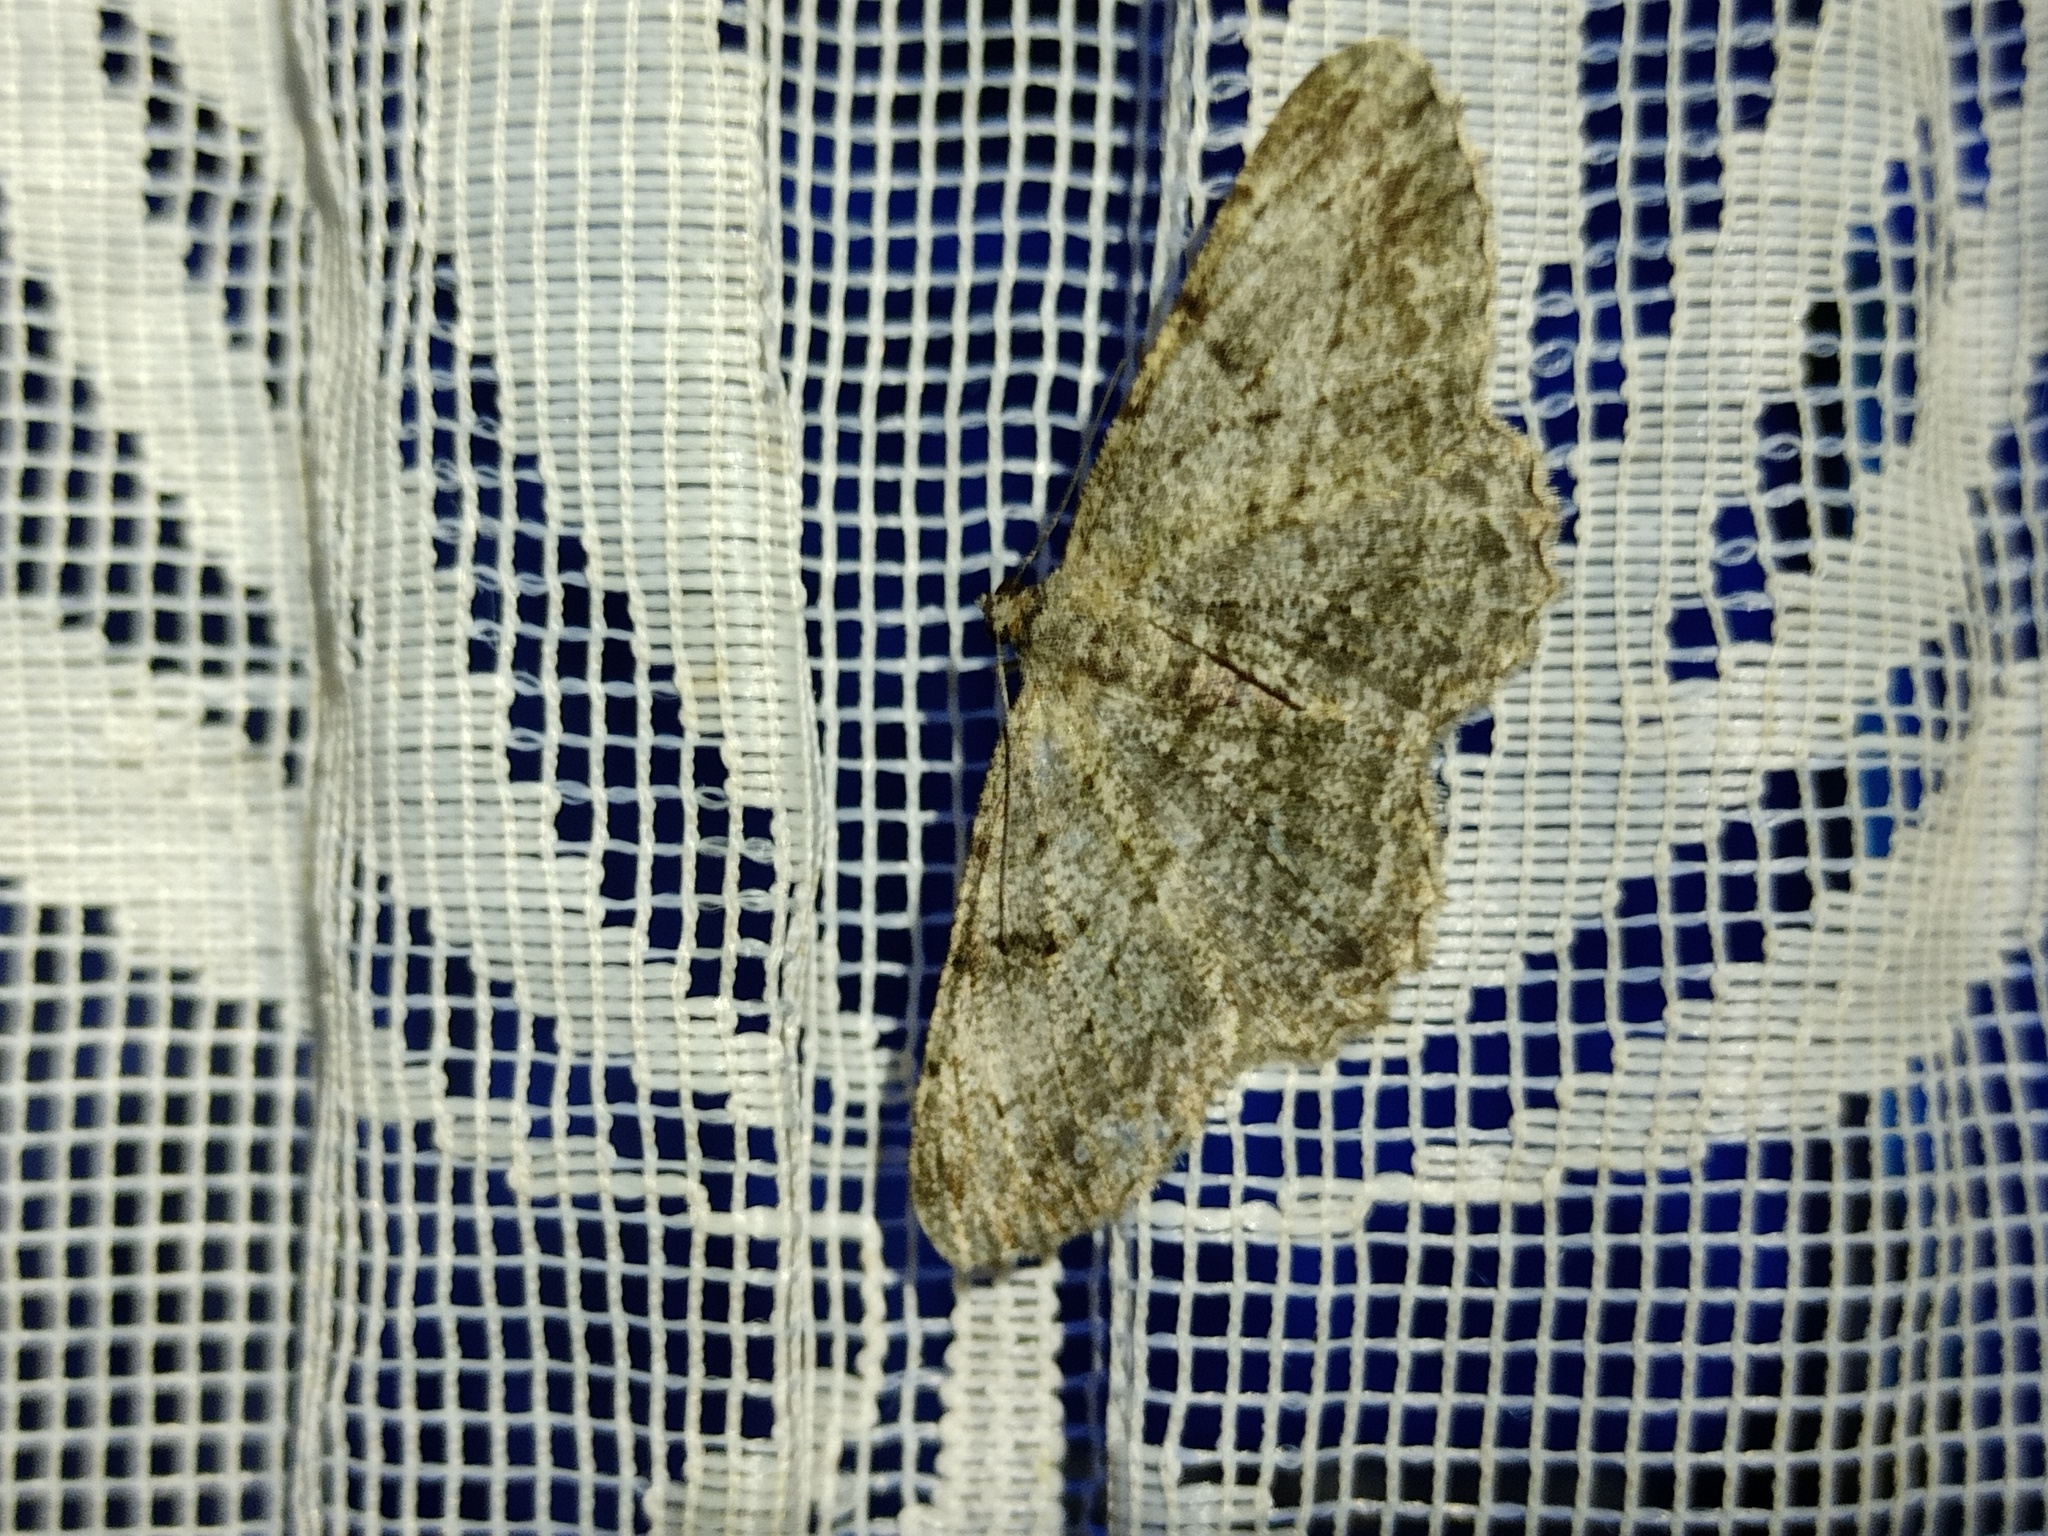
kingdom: Animalia
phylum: Arthropoda
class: Insecta
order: Lepidoptera
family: Geometridae
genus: Peribatodes
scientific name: Peribatodes rhomboidaria
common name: Willow beauty
